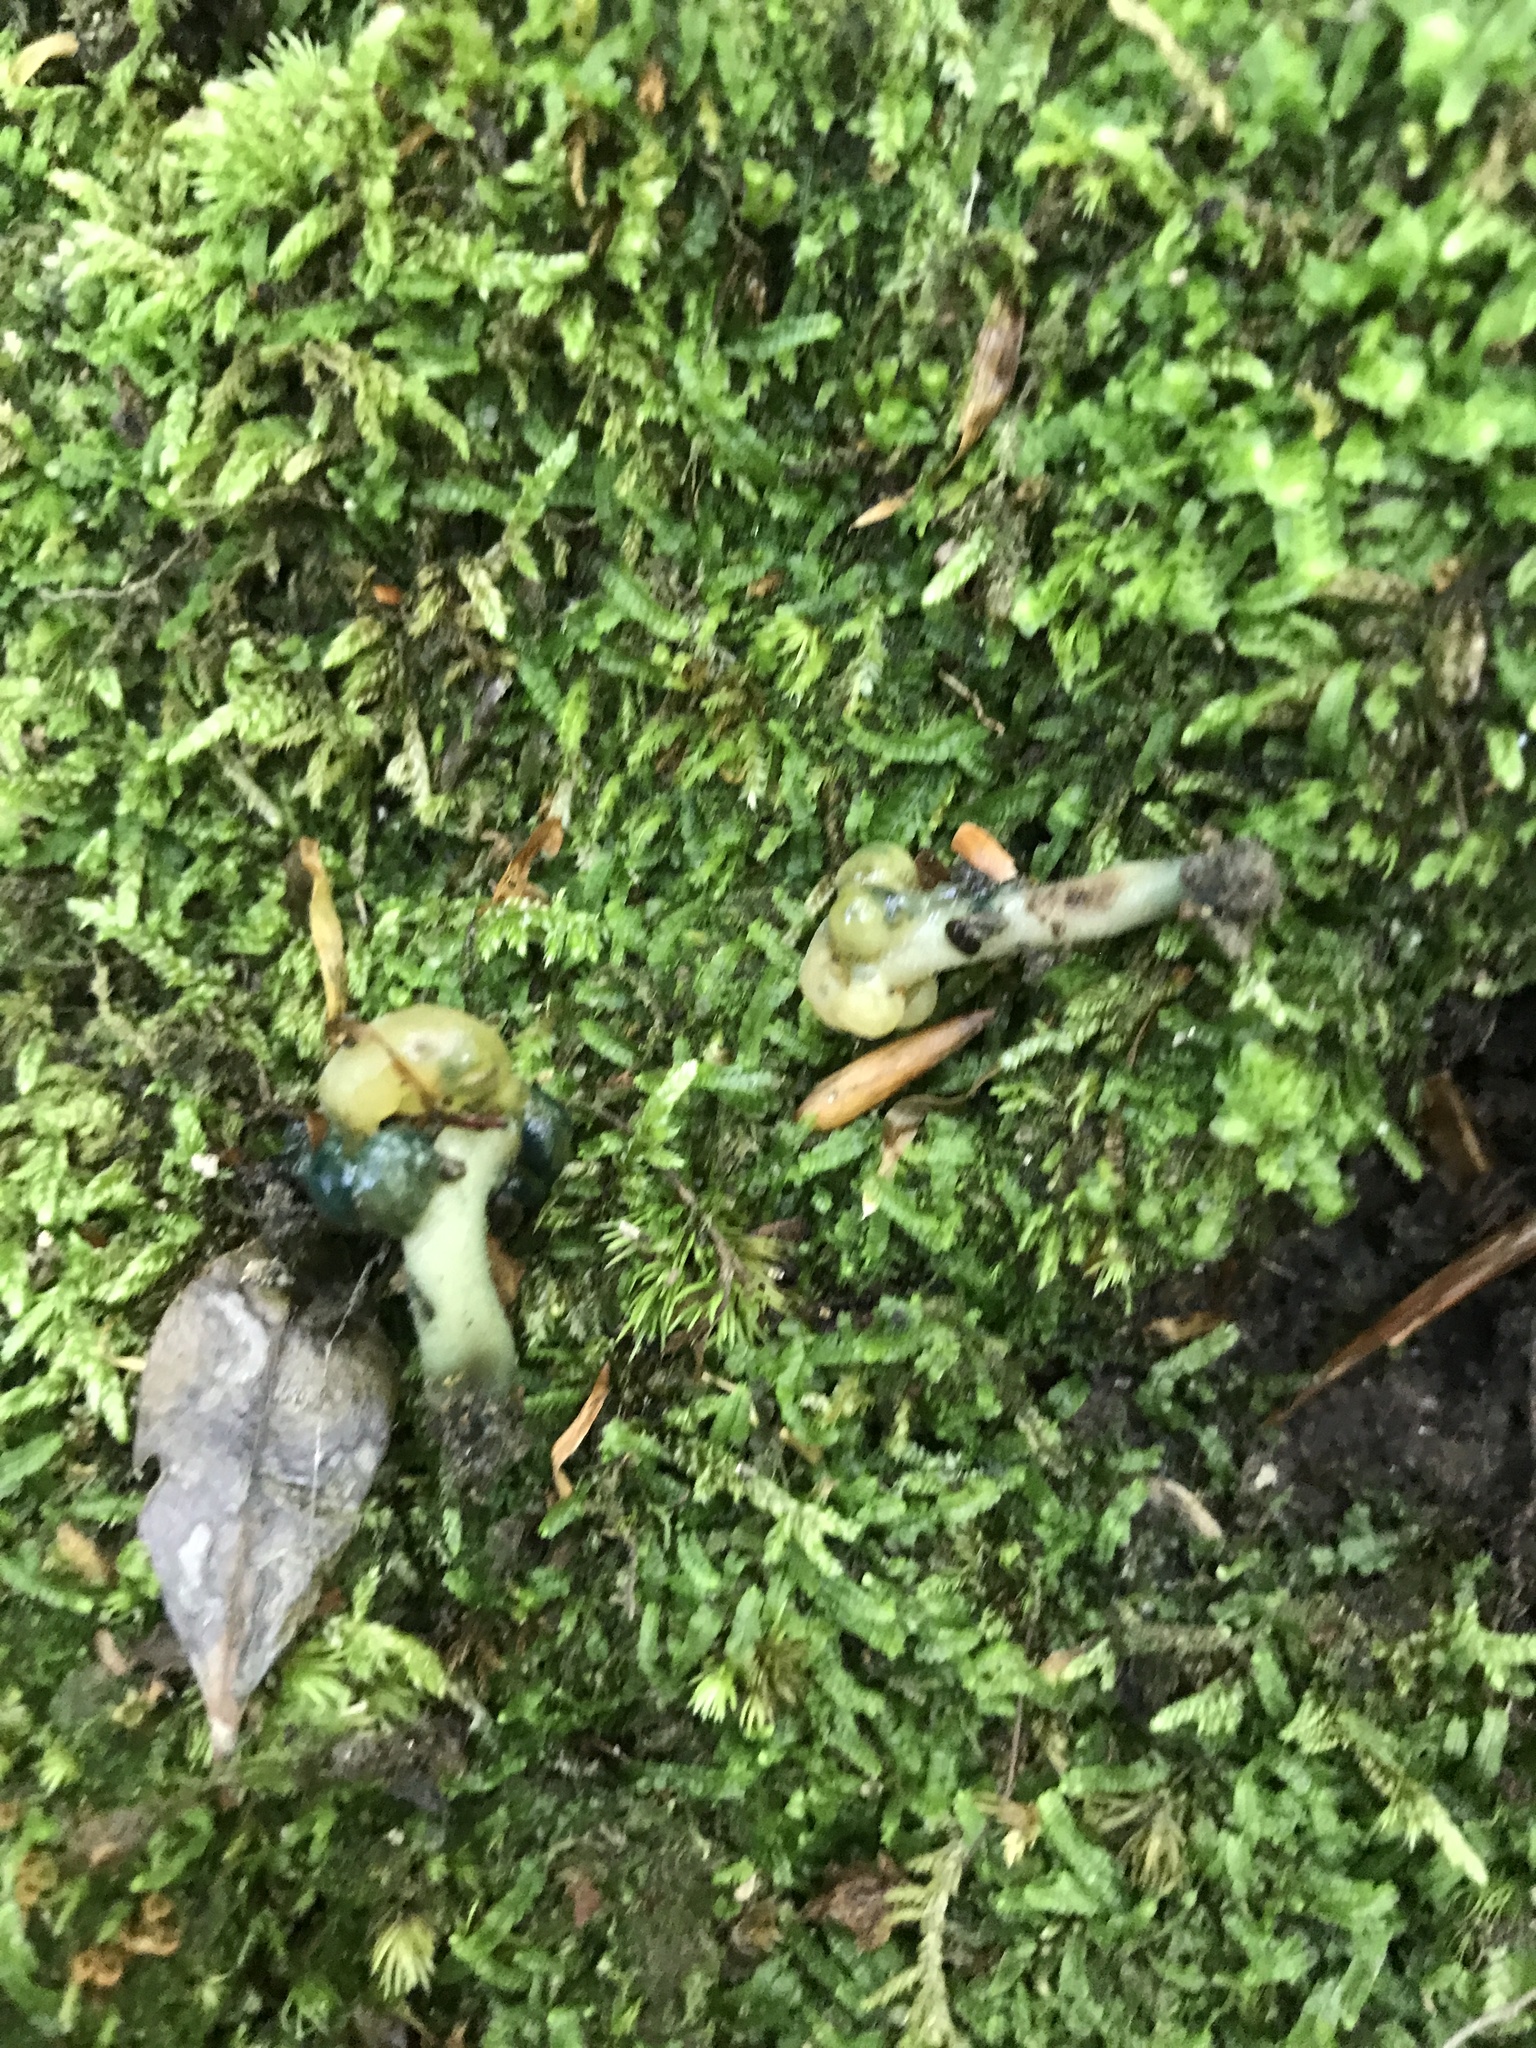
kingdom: Fungi
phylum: Ascomycota
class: Leotiomycetes
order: Leotiales
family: Leotiaceae
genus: Leotia
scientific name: Leotia lubrica
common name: Jellybaby
